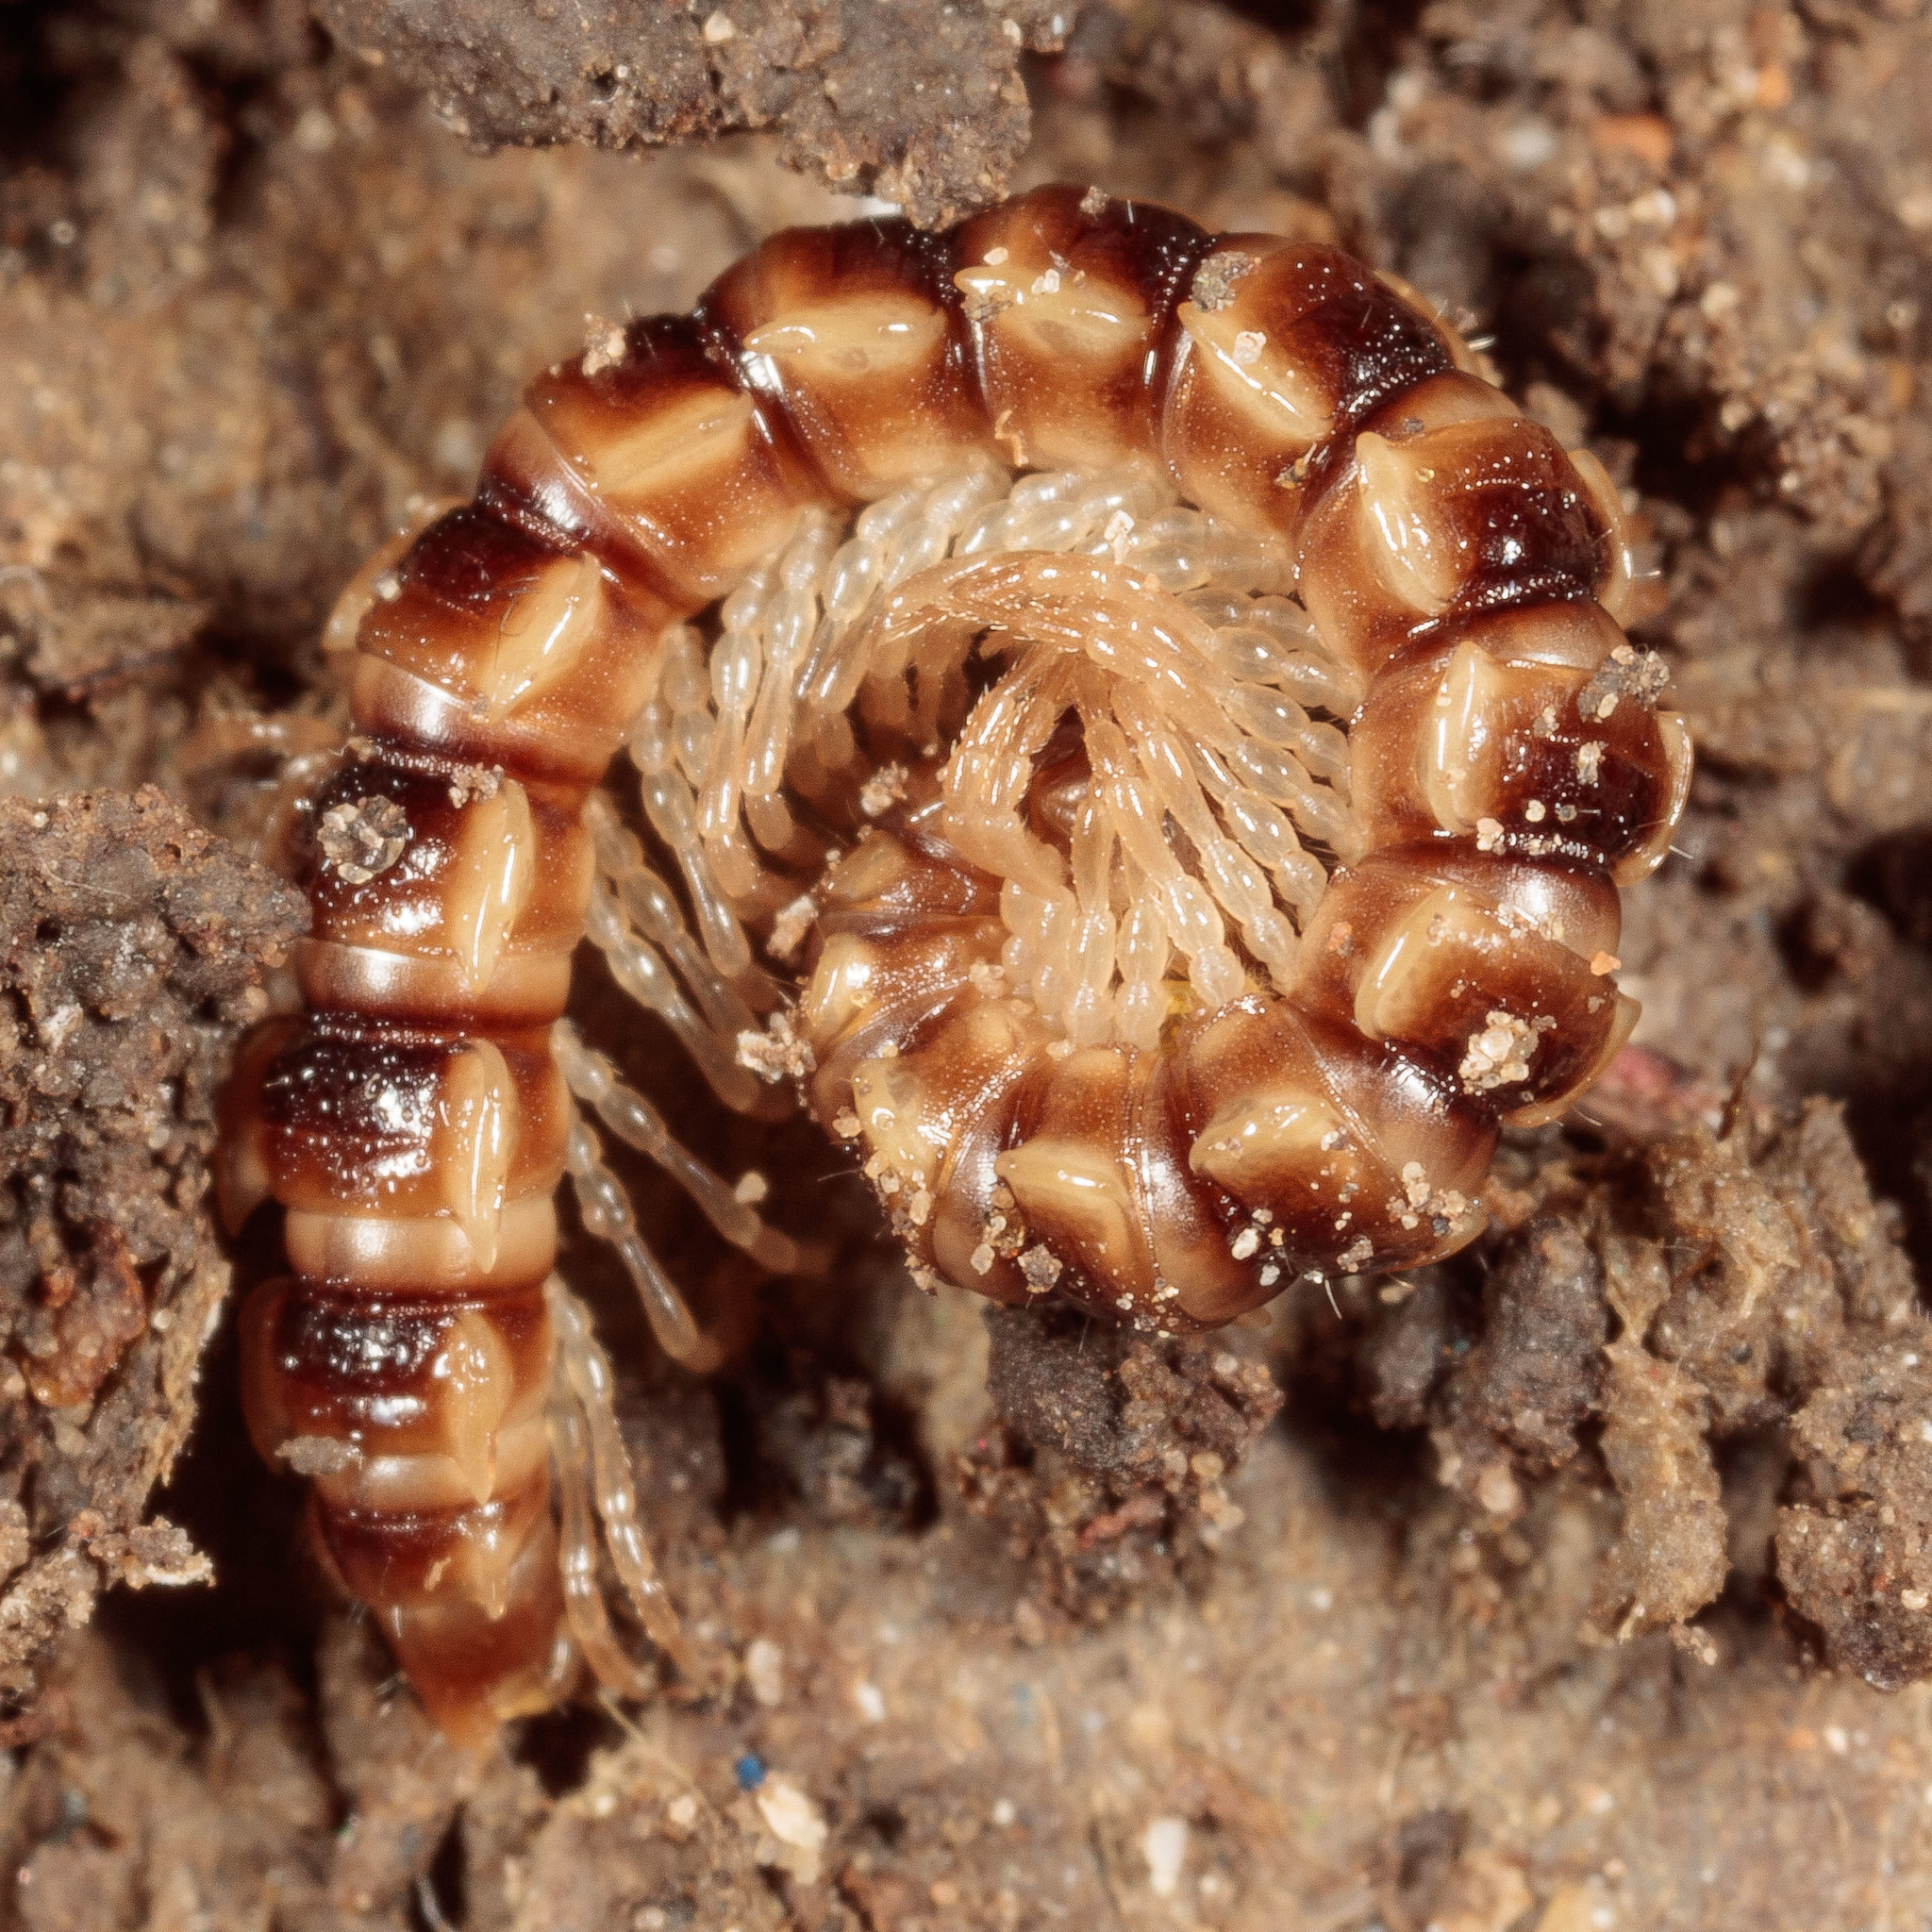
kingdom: Animalia
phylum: Arthropoda
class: Diplopoda
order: Polydesmida
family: Paradoxosomatidae
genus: Oxidus
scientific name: Oxidus gracilis
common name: Greenhouse millipede
